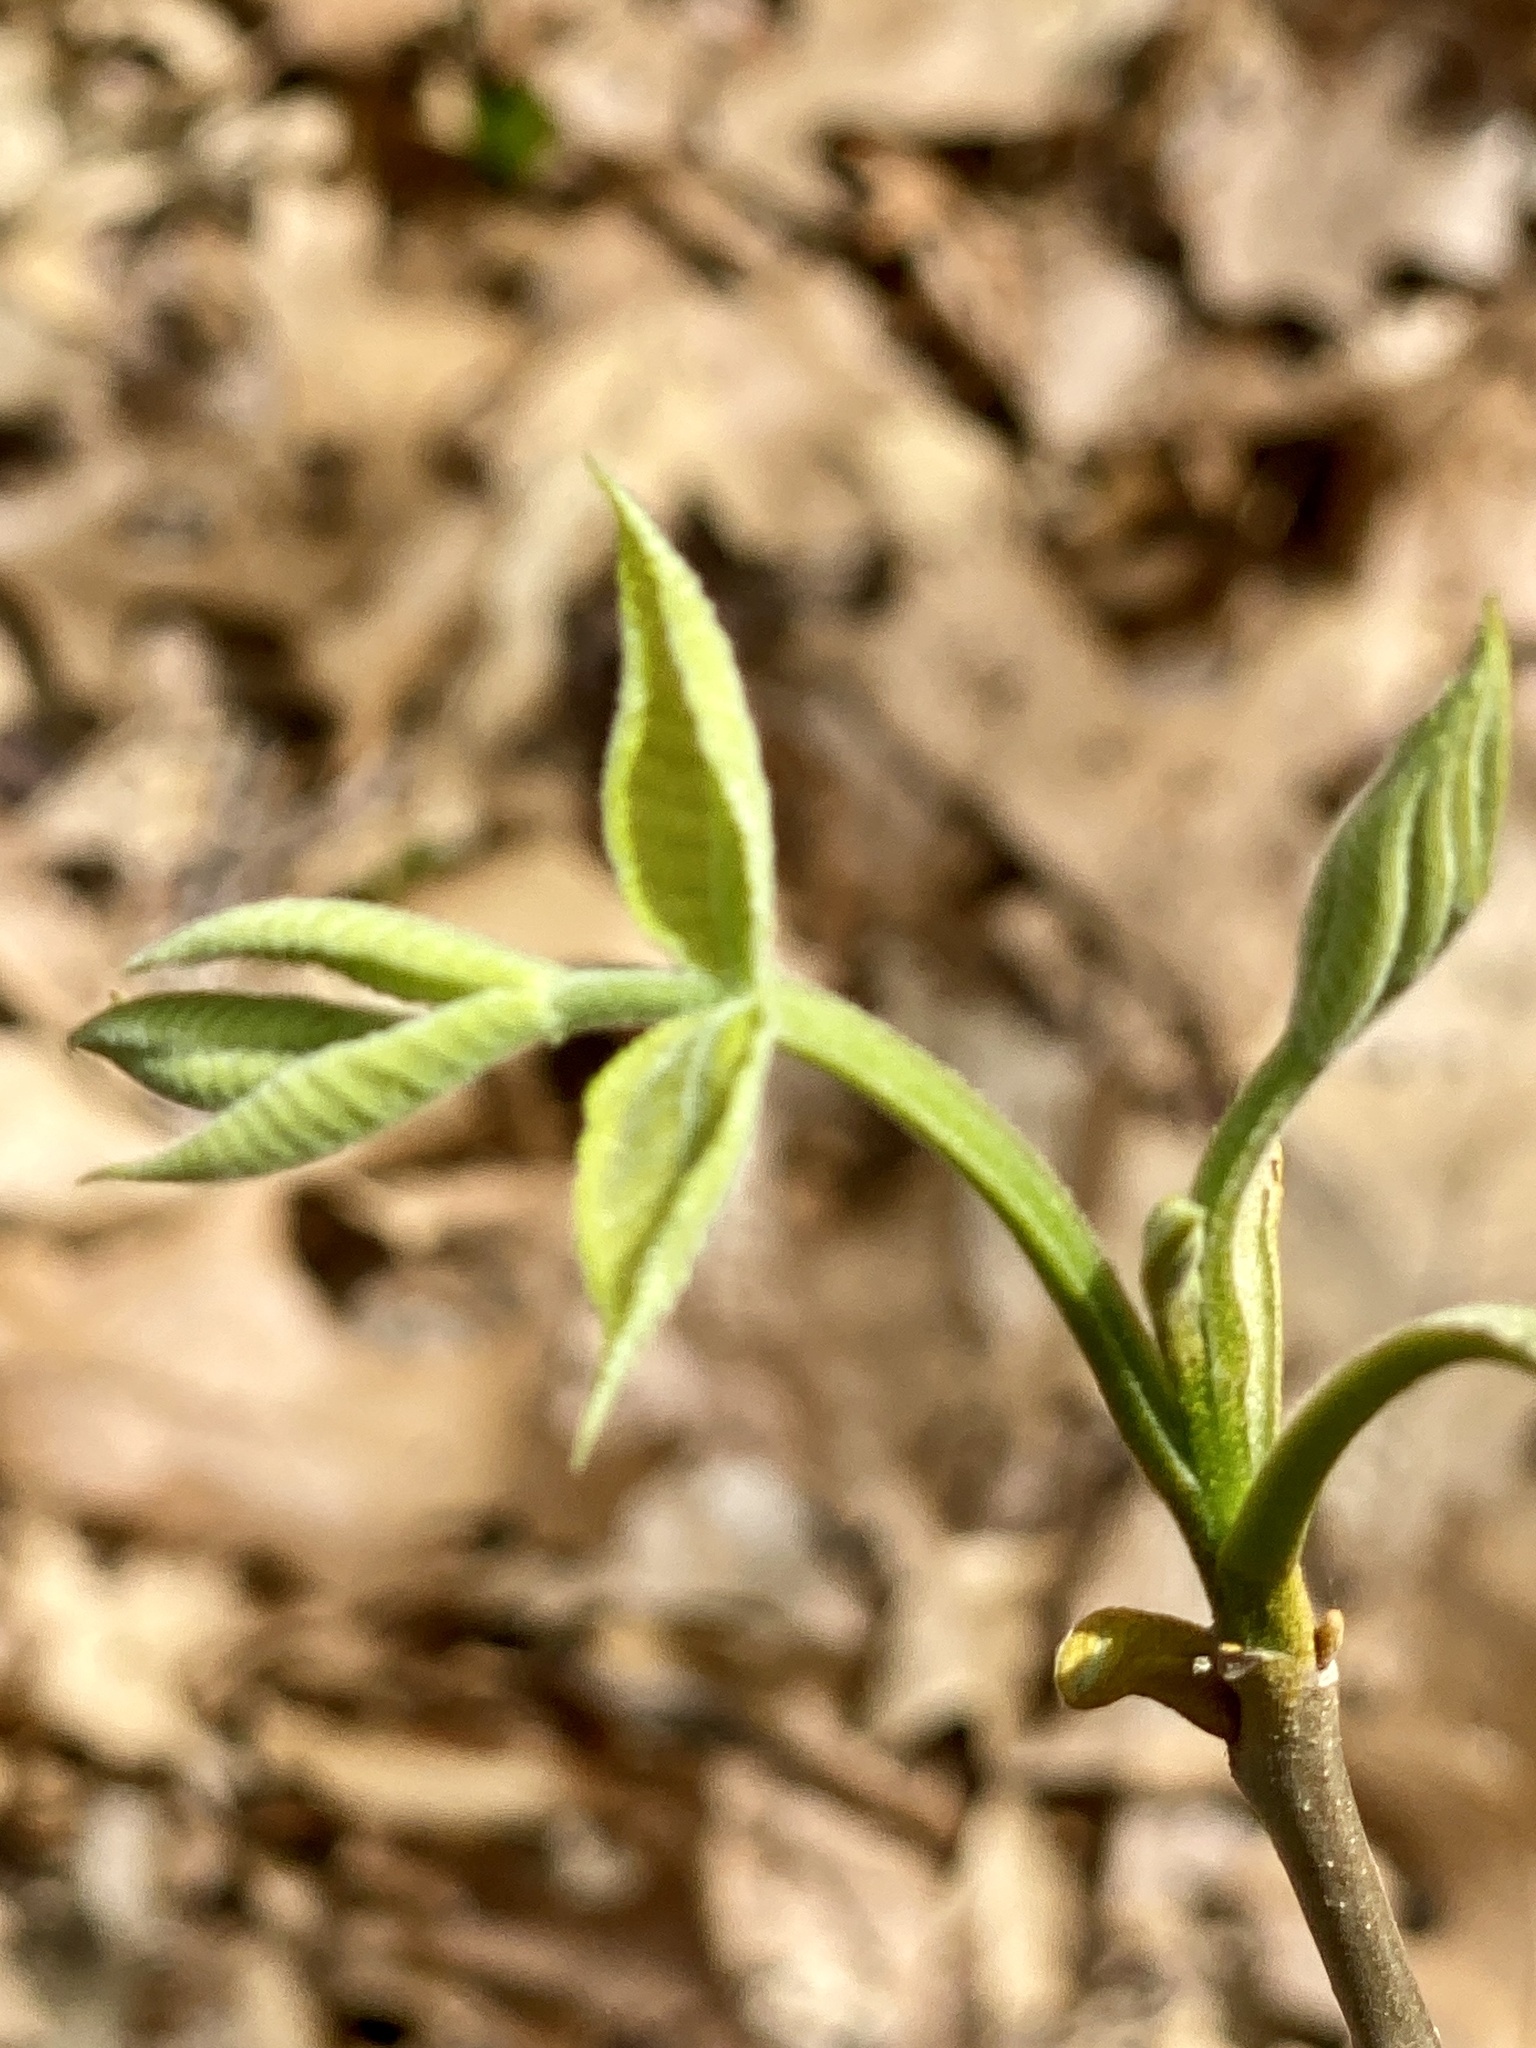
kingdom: Plantae
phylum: Tracheophyta
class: Magnoliopsida
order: Fagales
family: Juglandaceae
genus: Carya
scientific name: Carya cordiformis
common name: Bitternut hickory
